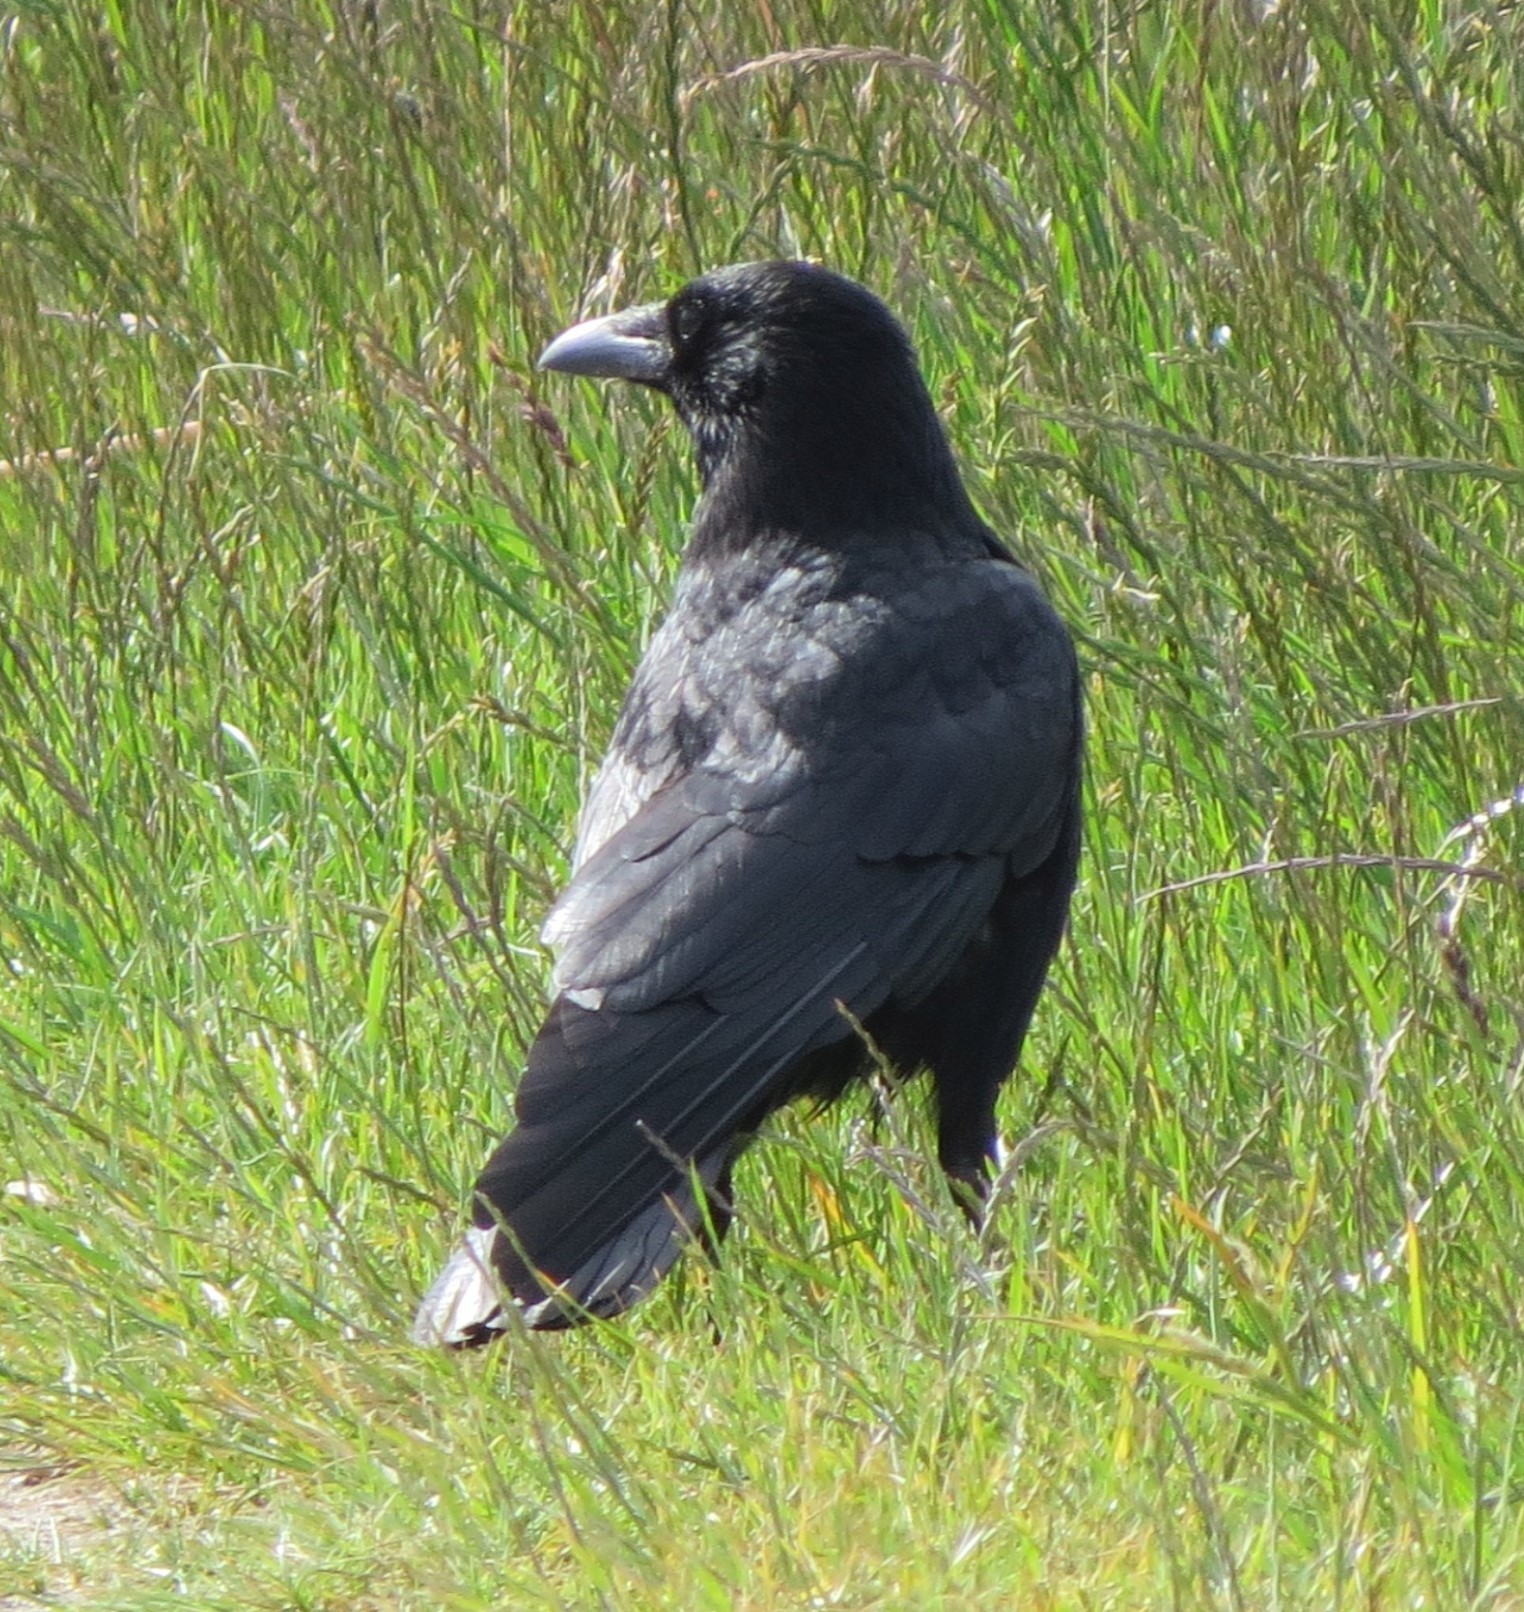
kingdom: Animalia
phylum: Chordata
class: Aves
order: Passeriformes
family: Corvidae
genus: Corvus
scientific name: Corvus corone
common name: Carrion crow
